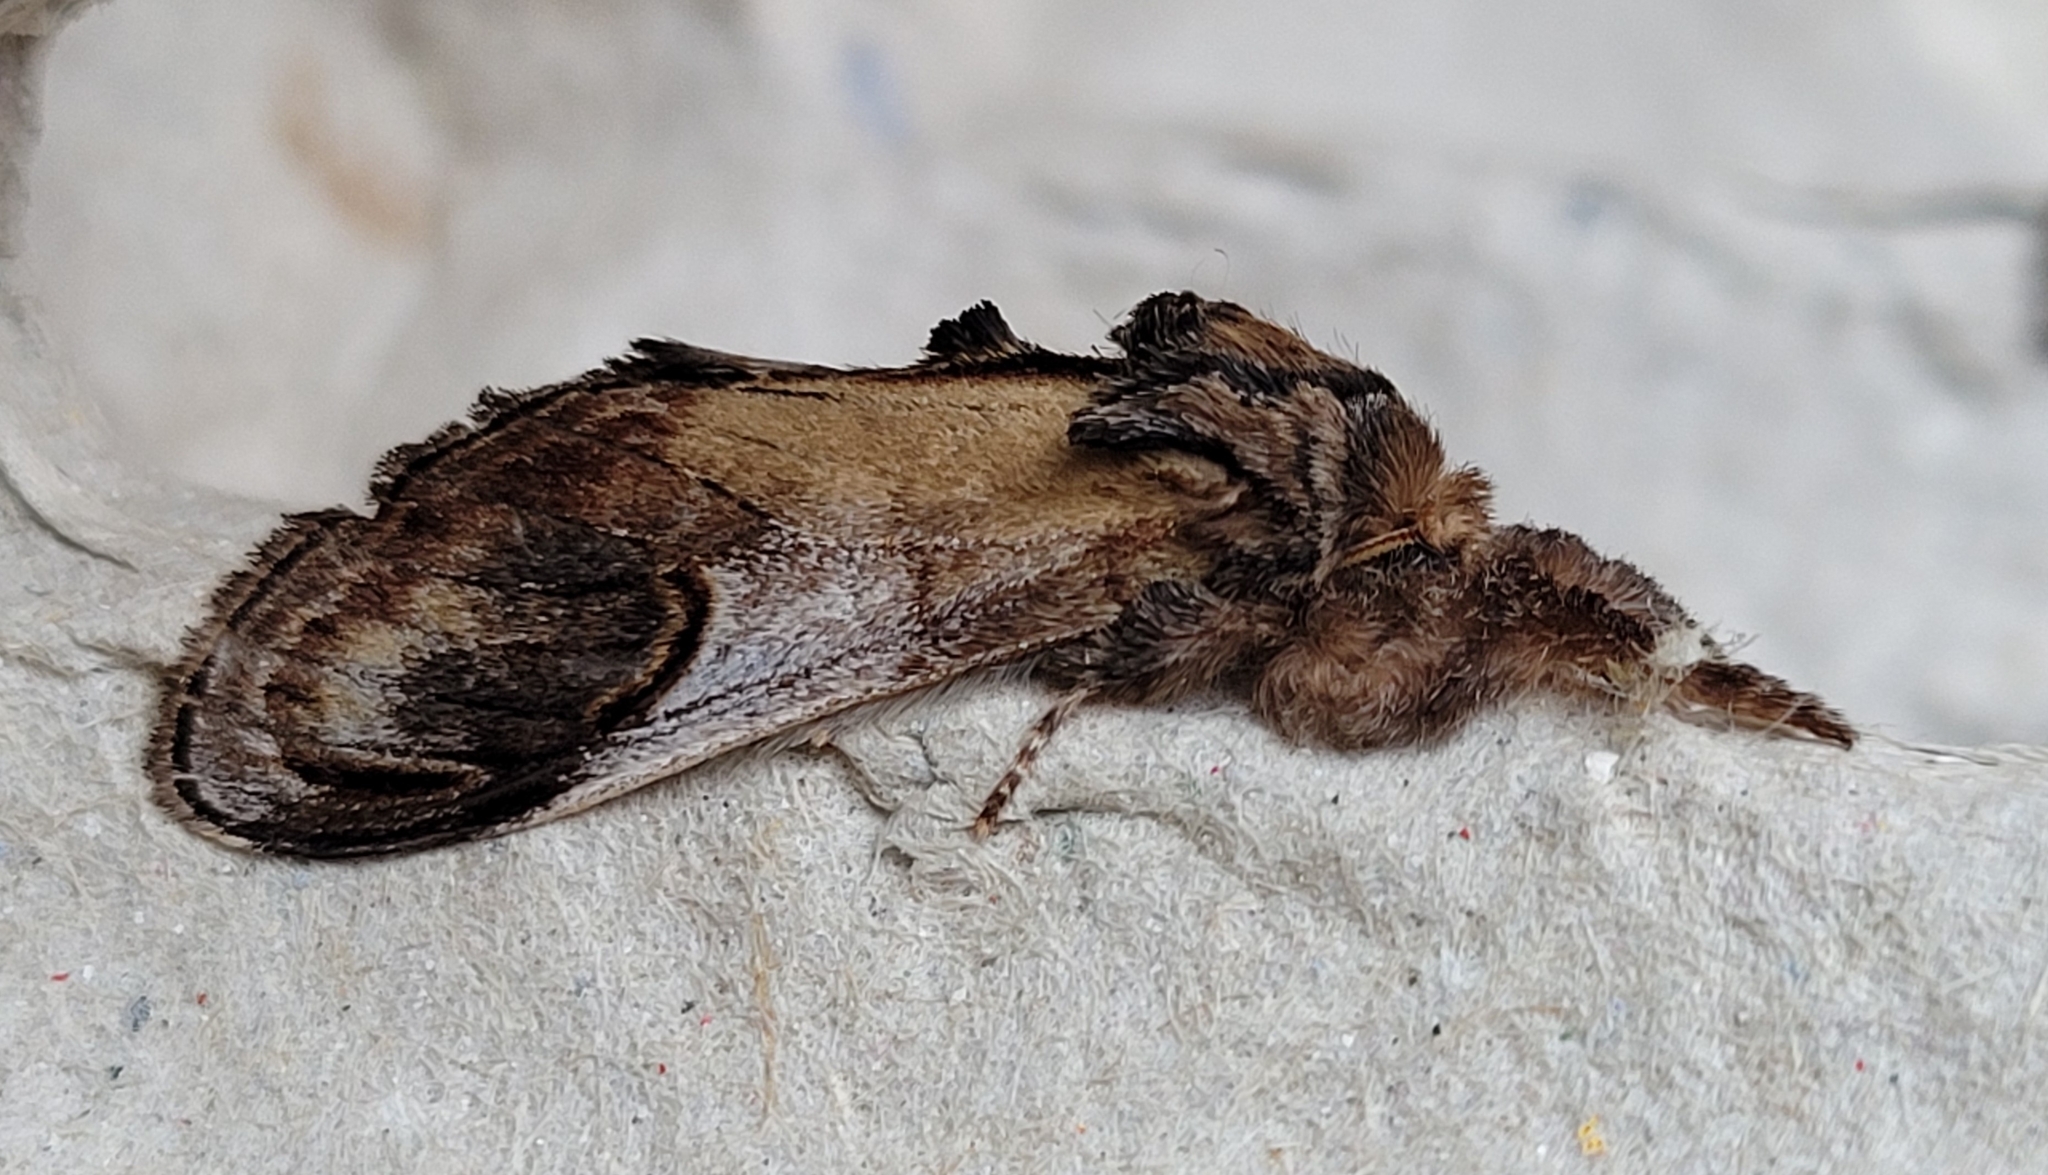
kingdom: Animalia
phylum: Arthropoda
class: Insecta
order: Lepidoptera
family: Notodontidae
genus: Notodonta
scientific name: Notodonta ziczac
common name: Pebble prominent
